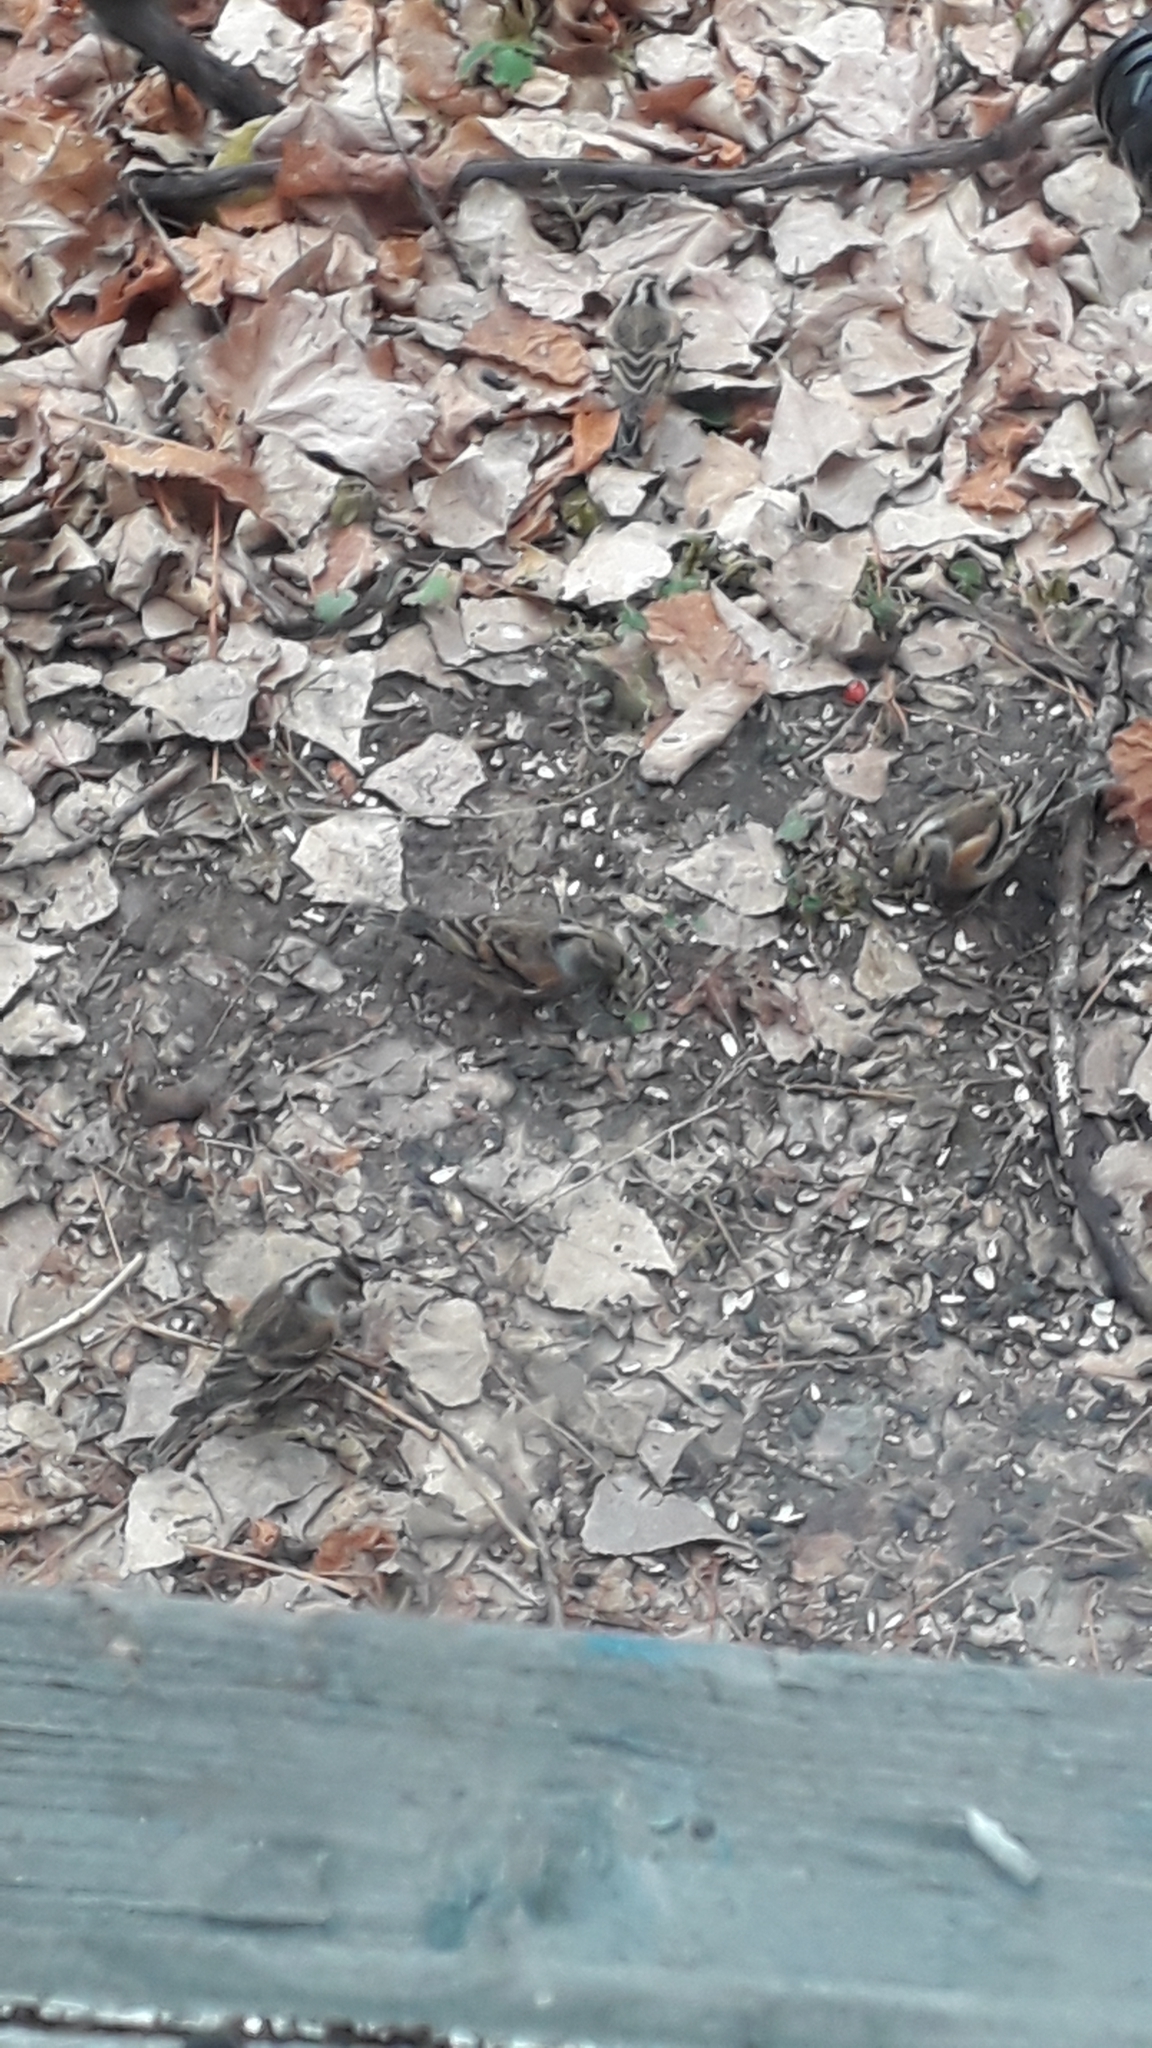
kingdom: Animalia
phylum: Chordata
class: Aves
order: Passeriformes
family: Fringillidae
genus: Fringilla
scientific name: Fringilla montifringilla
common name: Brambling
